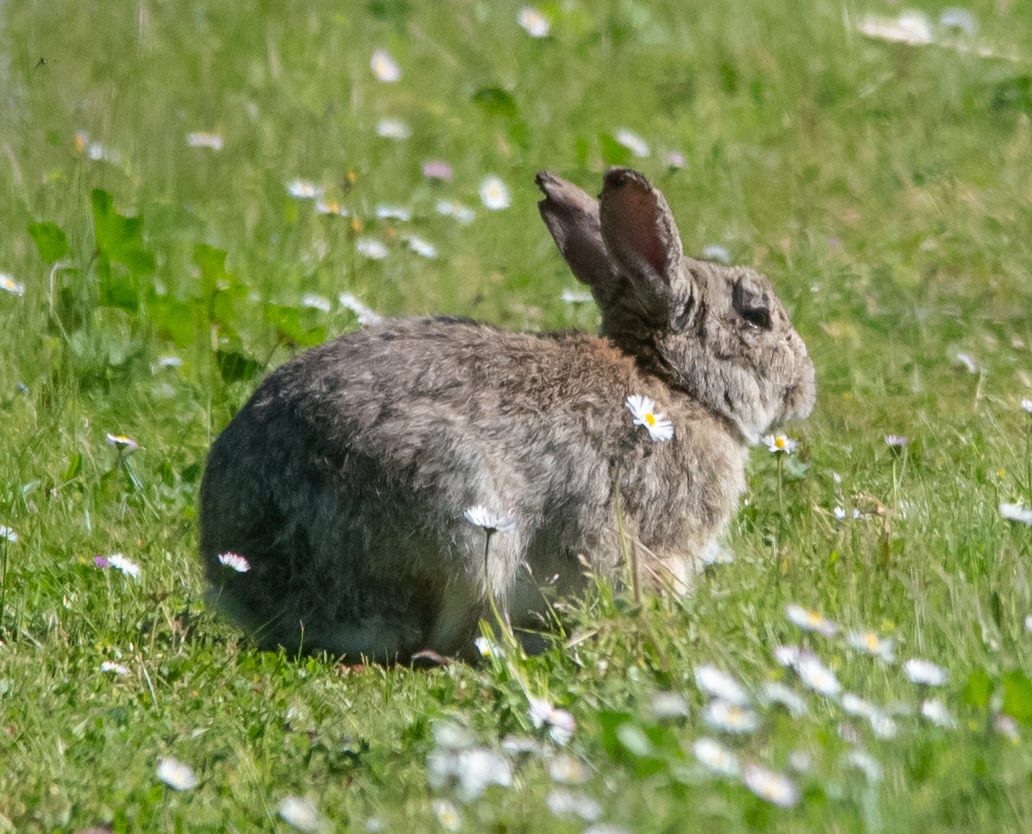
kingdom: Animalia
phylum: Chordata
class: Mammalia
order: Lagomorpha
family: Leporidae
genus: Oryctolagus
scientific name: Oryctolagus cuniculus
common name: European rabbit
